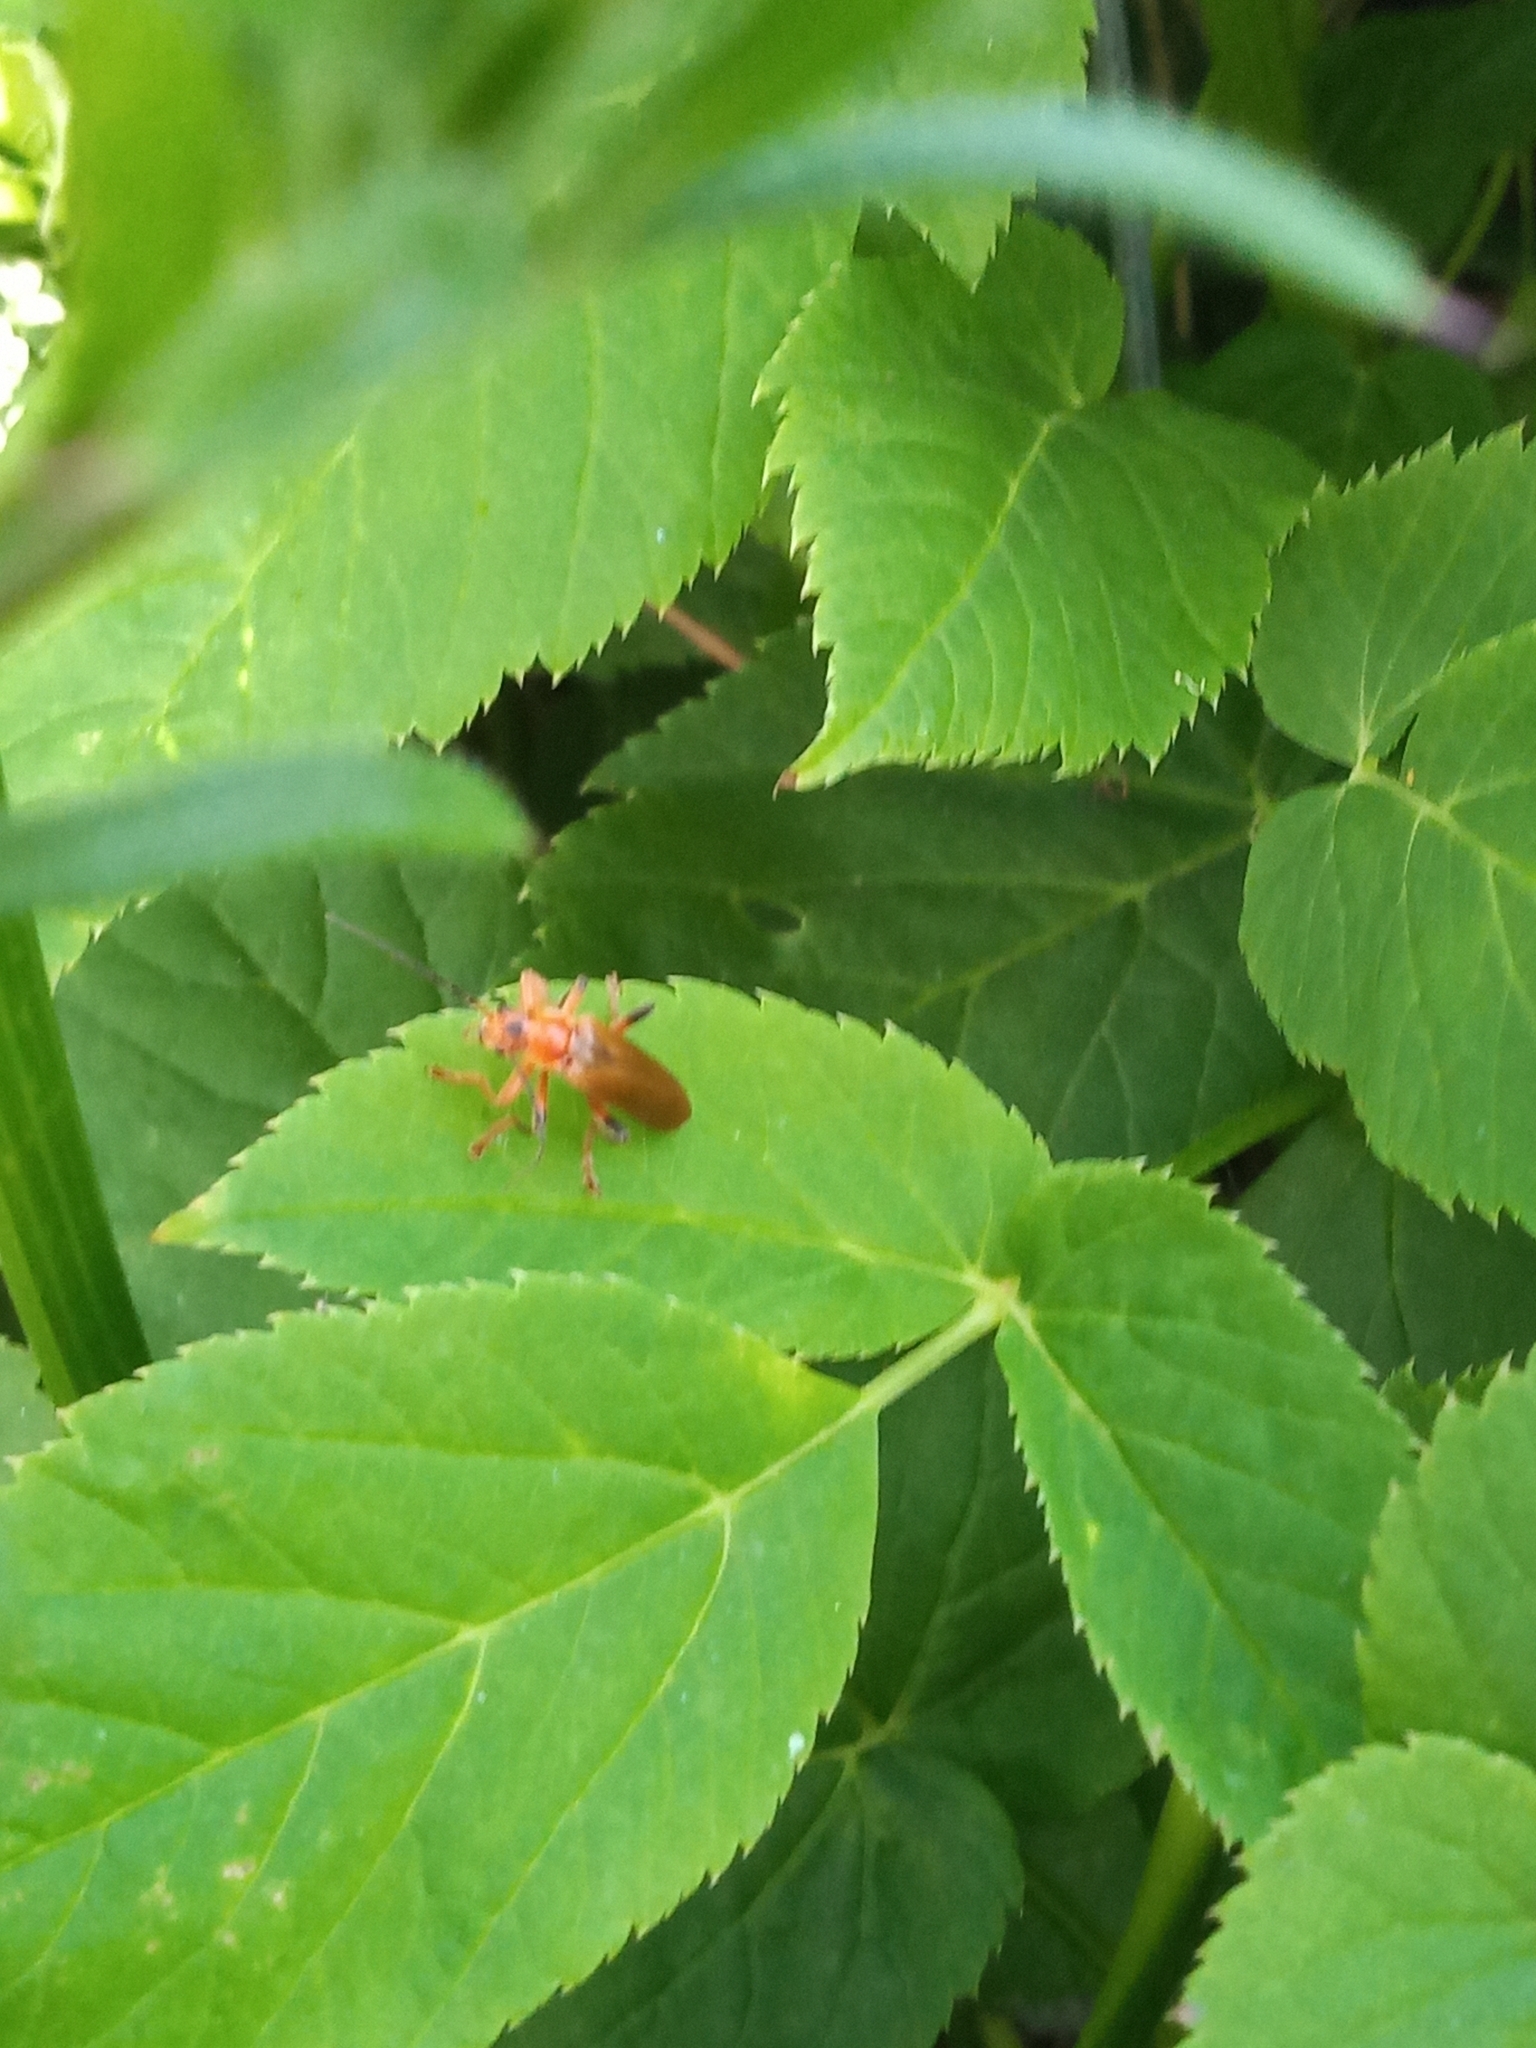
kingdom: Animalia
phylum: Arthropoda
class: Insecta
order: Coleoptera
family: Cantharidae
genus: Cantharis
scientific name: Cantharis livida
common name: Livid soldier beetle
